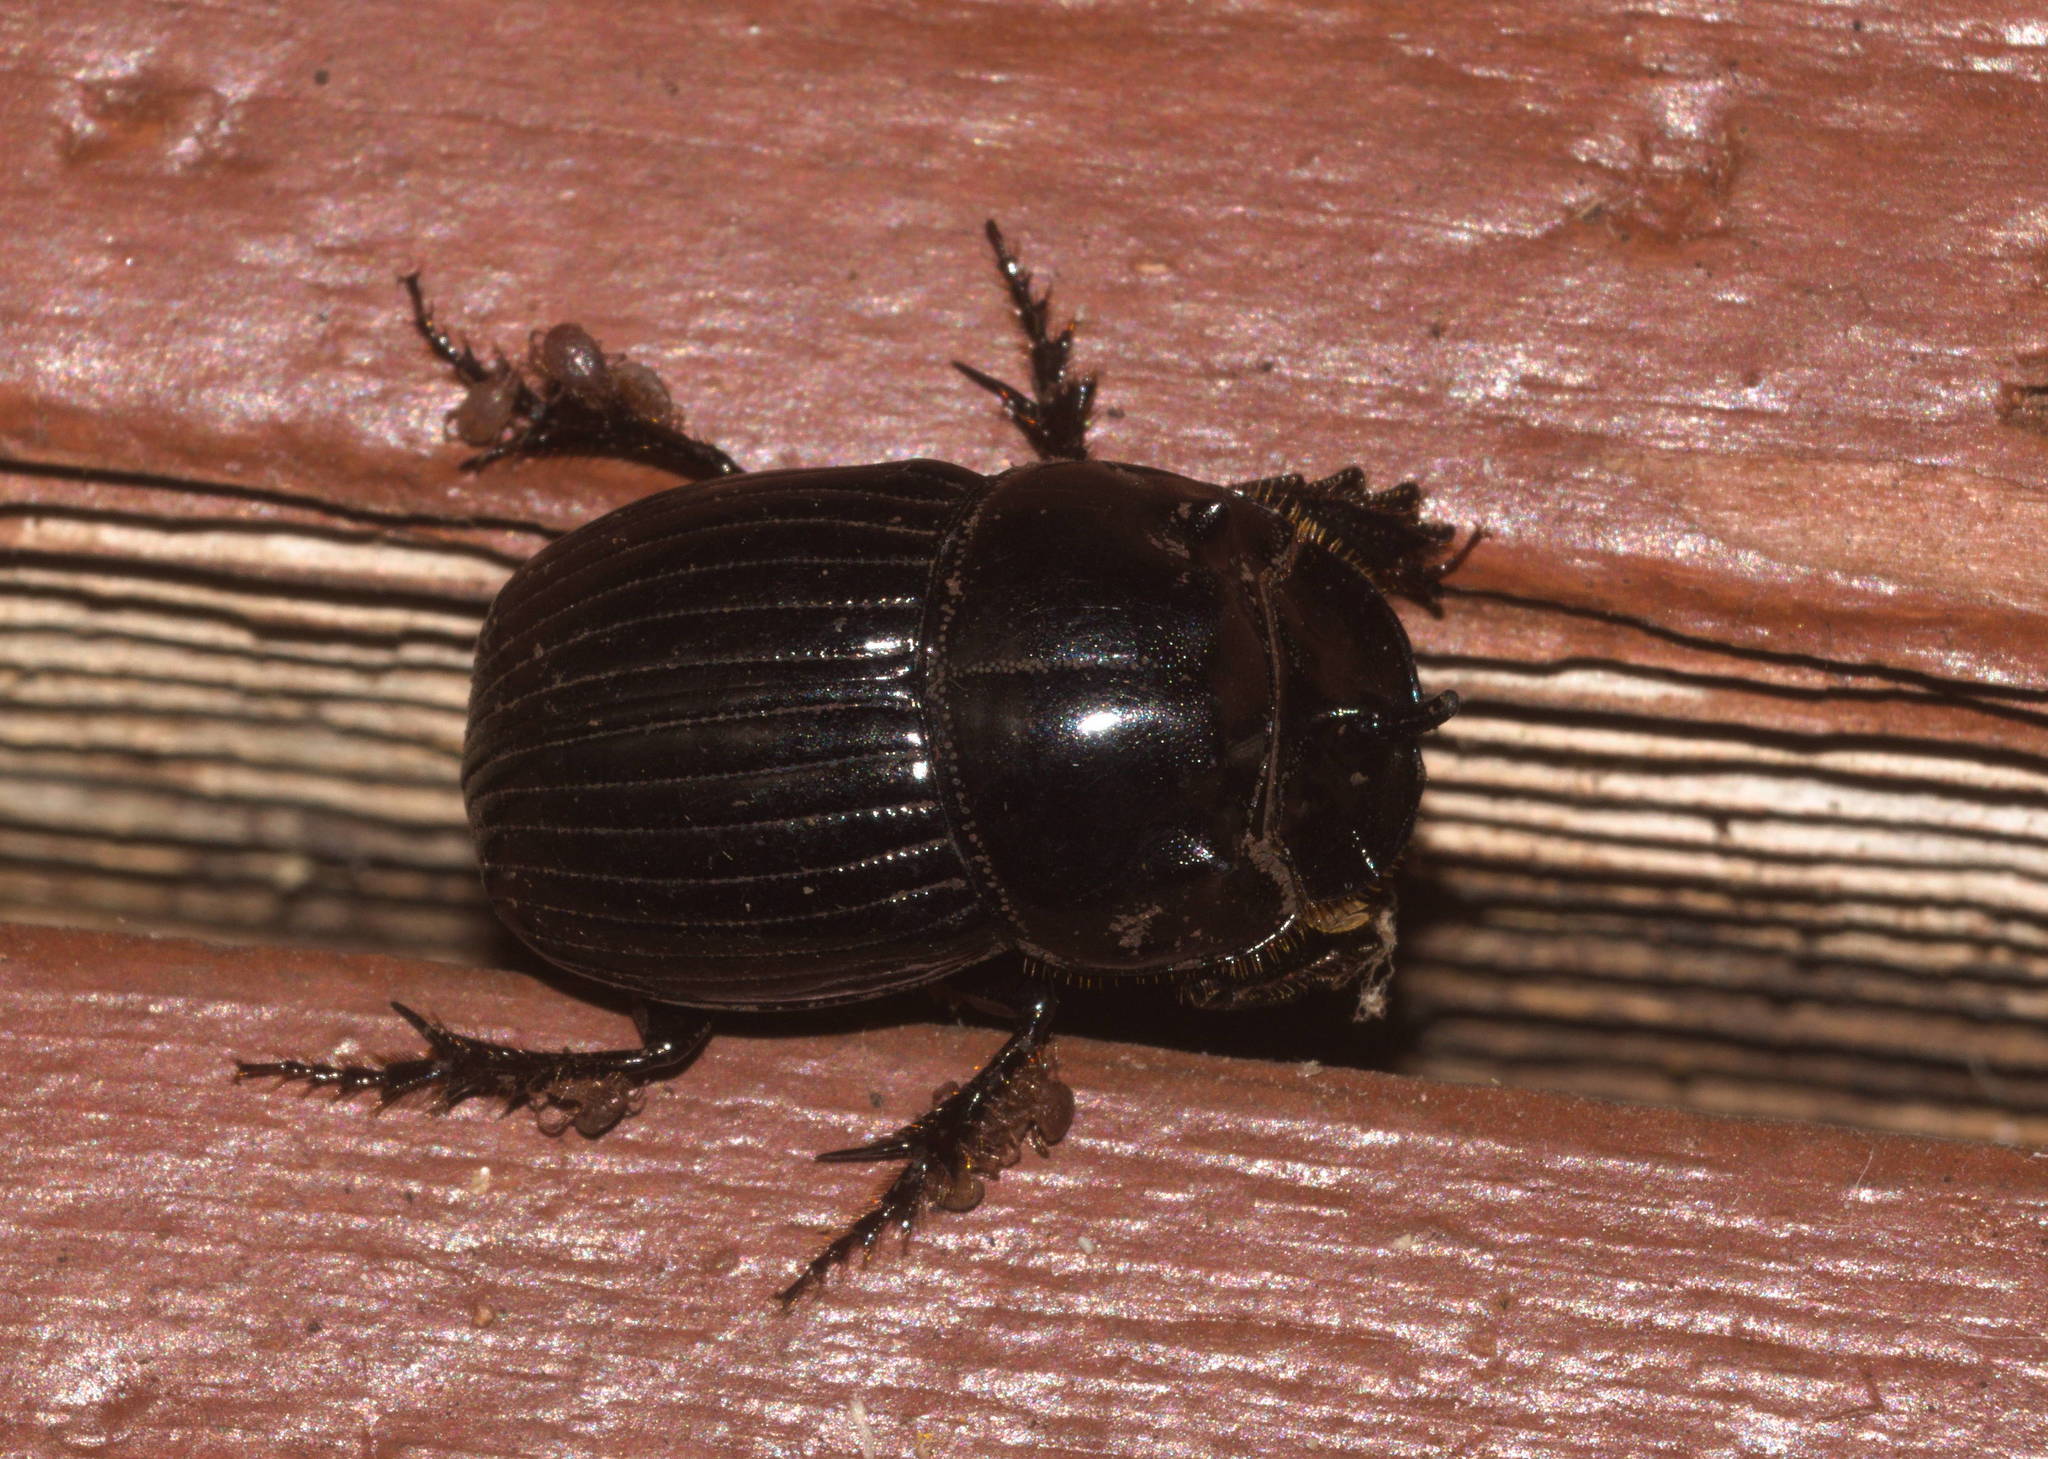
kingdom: Animalia
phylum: Arthropoda
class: Insecta
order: Coleoptera
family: Scarabaeidae
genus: Copris
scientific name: Copris incertus
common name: Uncertain dung beetle
